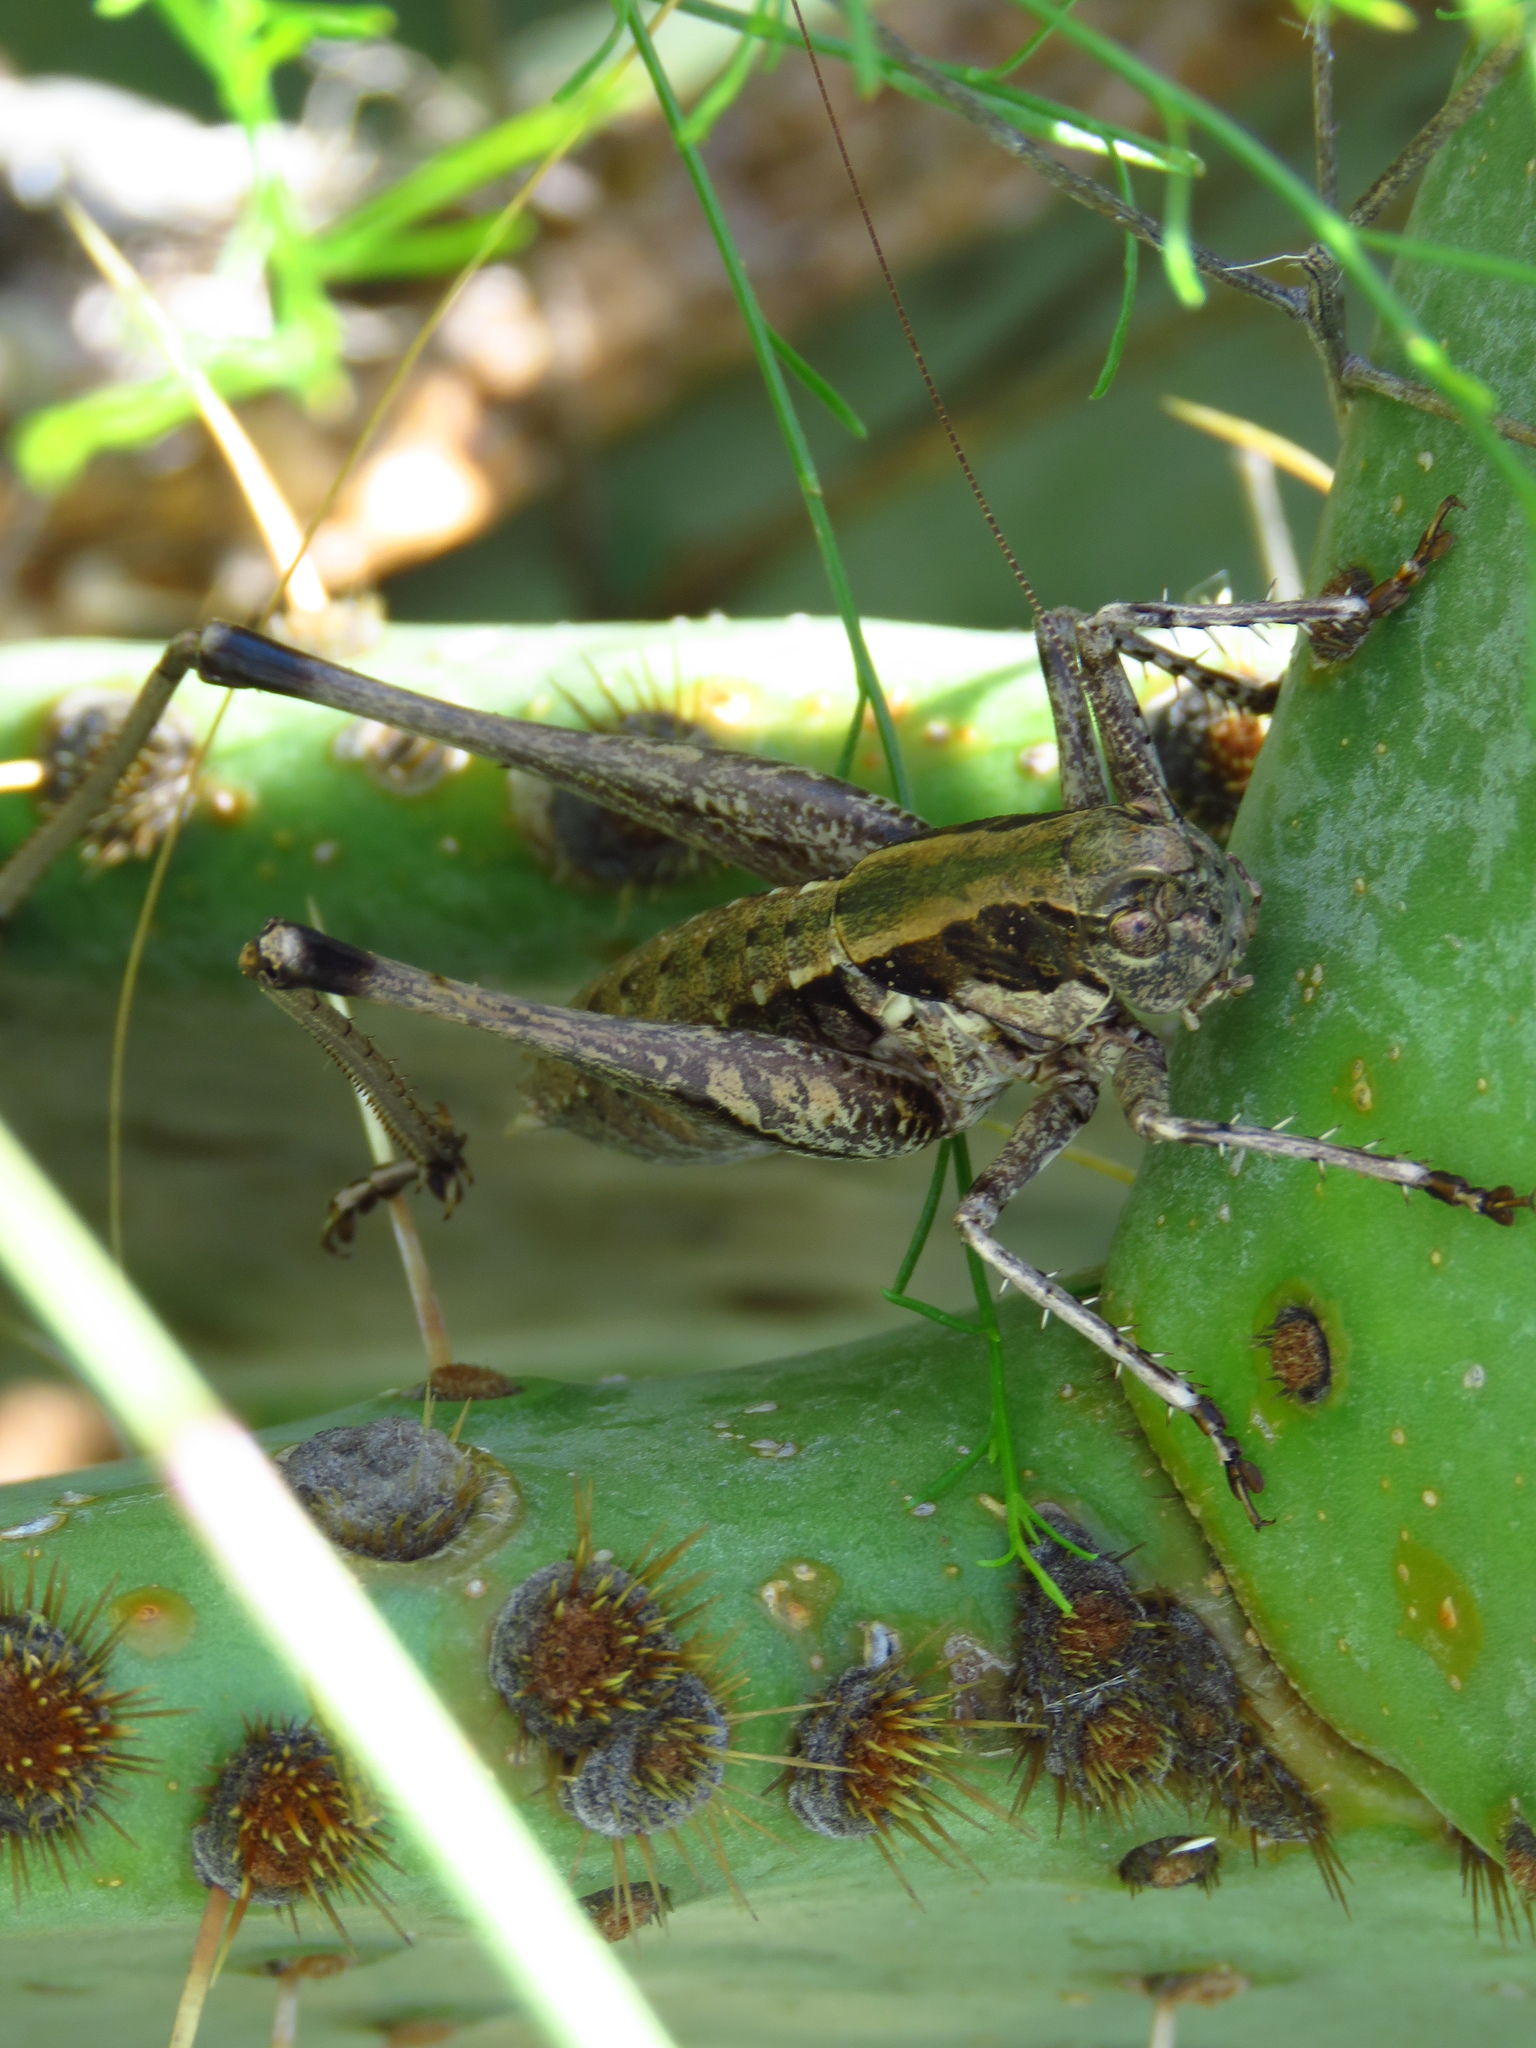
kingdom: Animalia
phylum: Arthropoda
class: Insecta
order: Orthoptera
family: Tettigoniidae
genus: Pediodectes
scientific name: Pediodectes nigromarginatus
